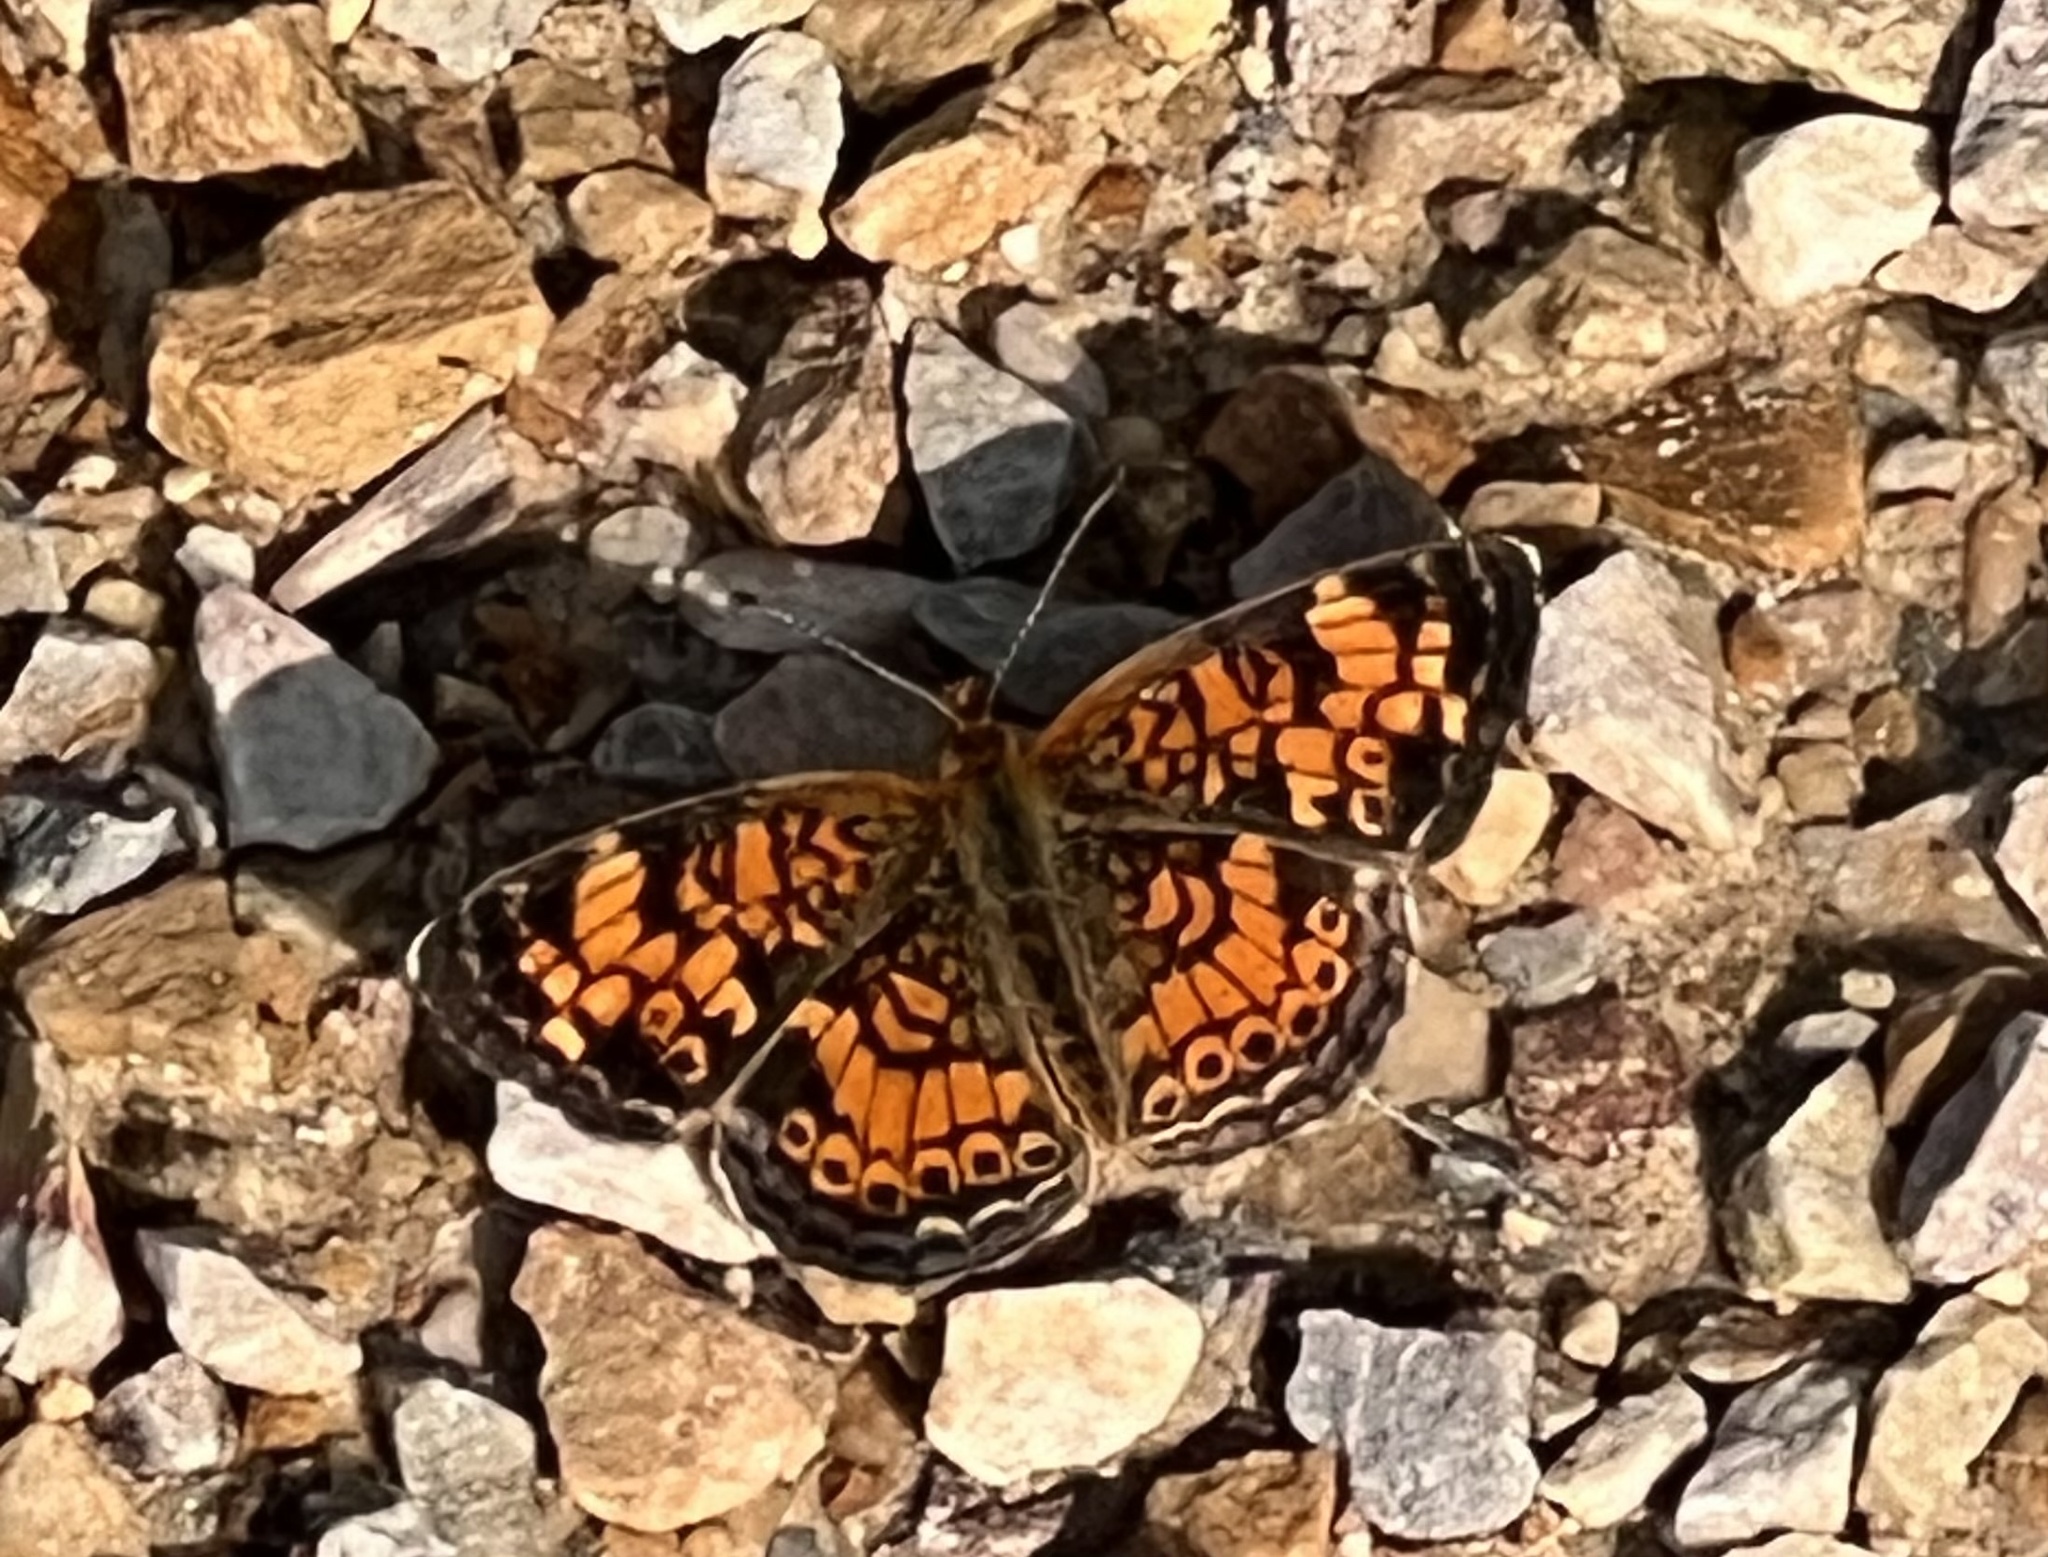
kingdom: Animalia
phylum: Arthropoda
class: Insecta
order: Lepidoptera
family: Nymphalidae
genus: Phyciodes
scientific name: Phyciodes tharos
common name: Pearl crescent
